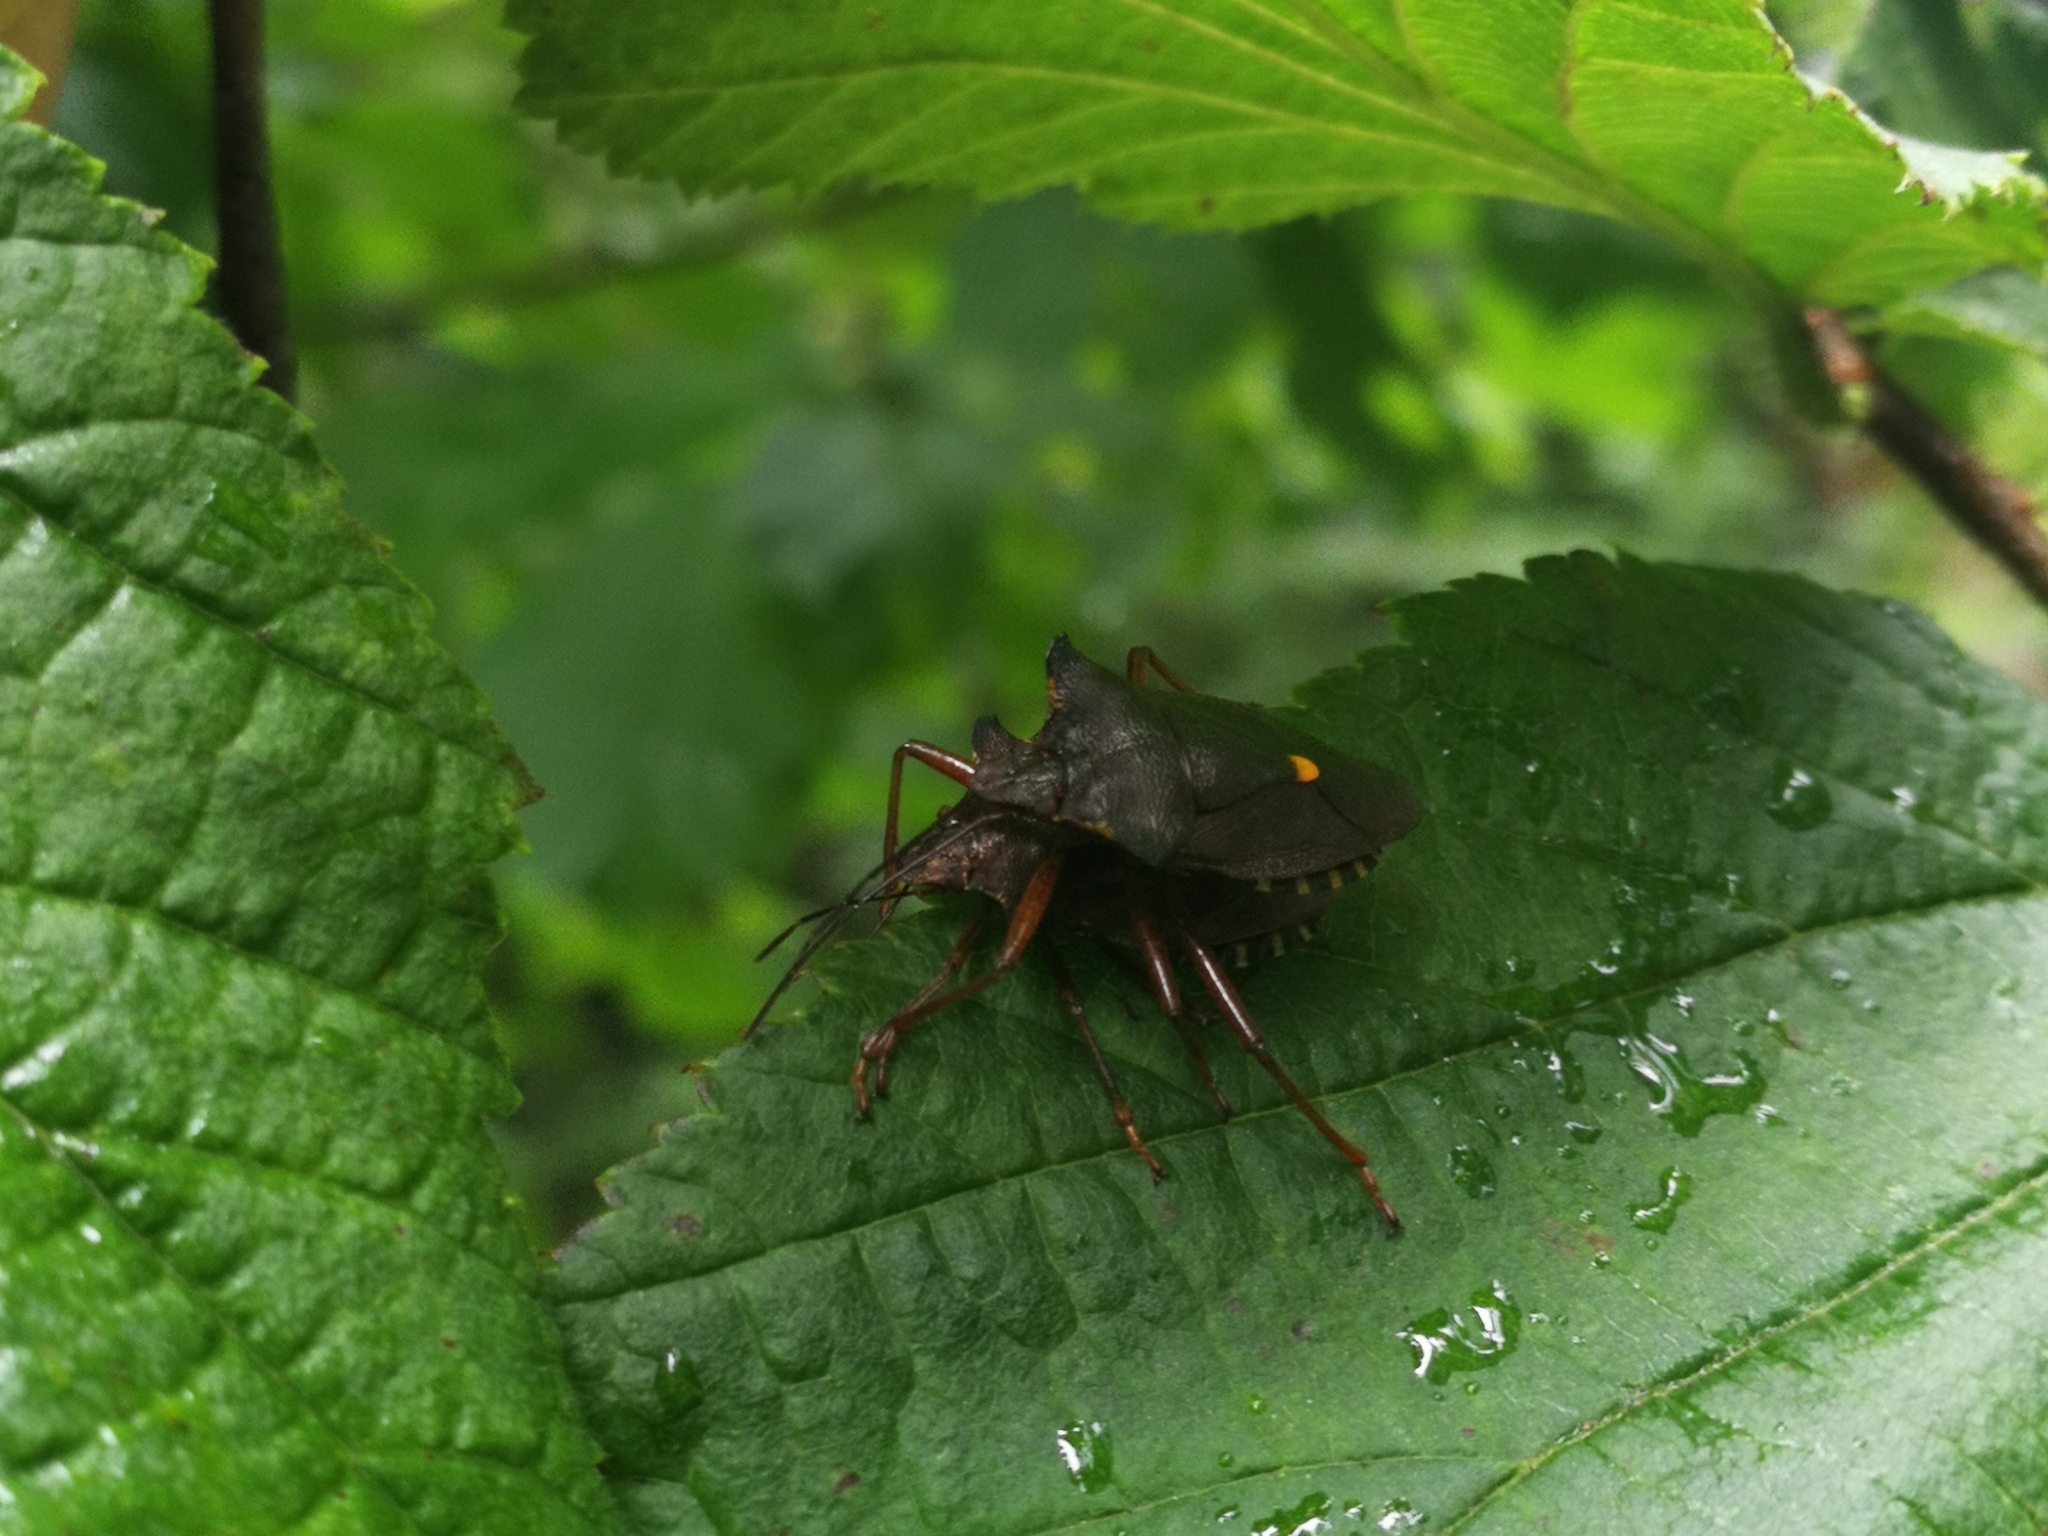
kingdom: Animalia
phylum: Arthropoda
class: Insecta
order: Hemiptera
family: Pentatomidae
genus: Pentatoma
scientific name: Pentatoma rufipes
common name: Forest bug
